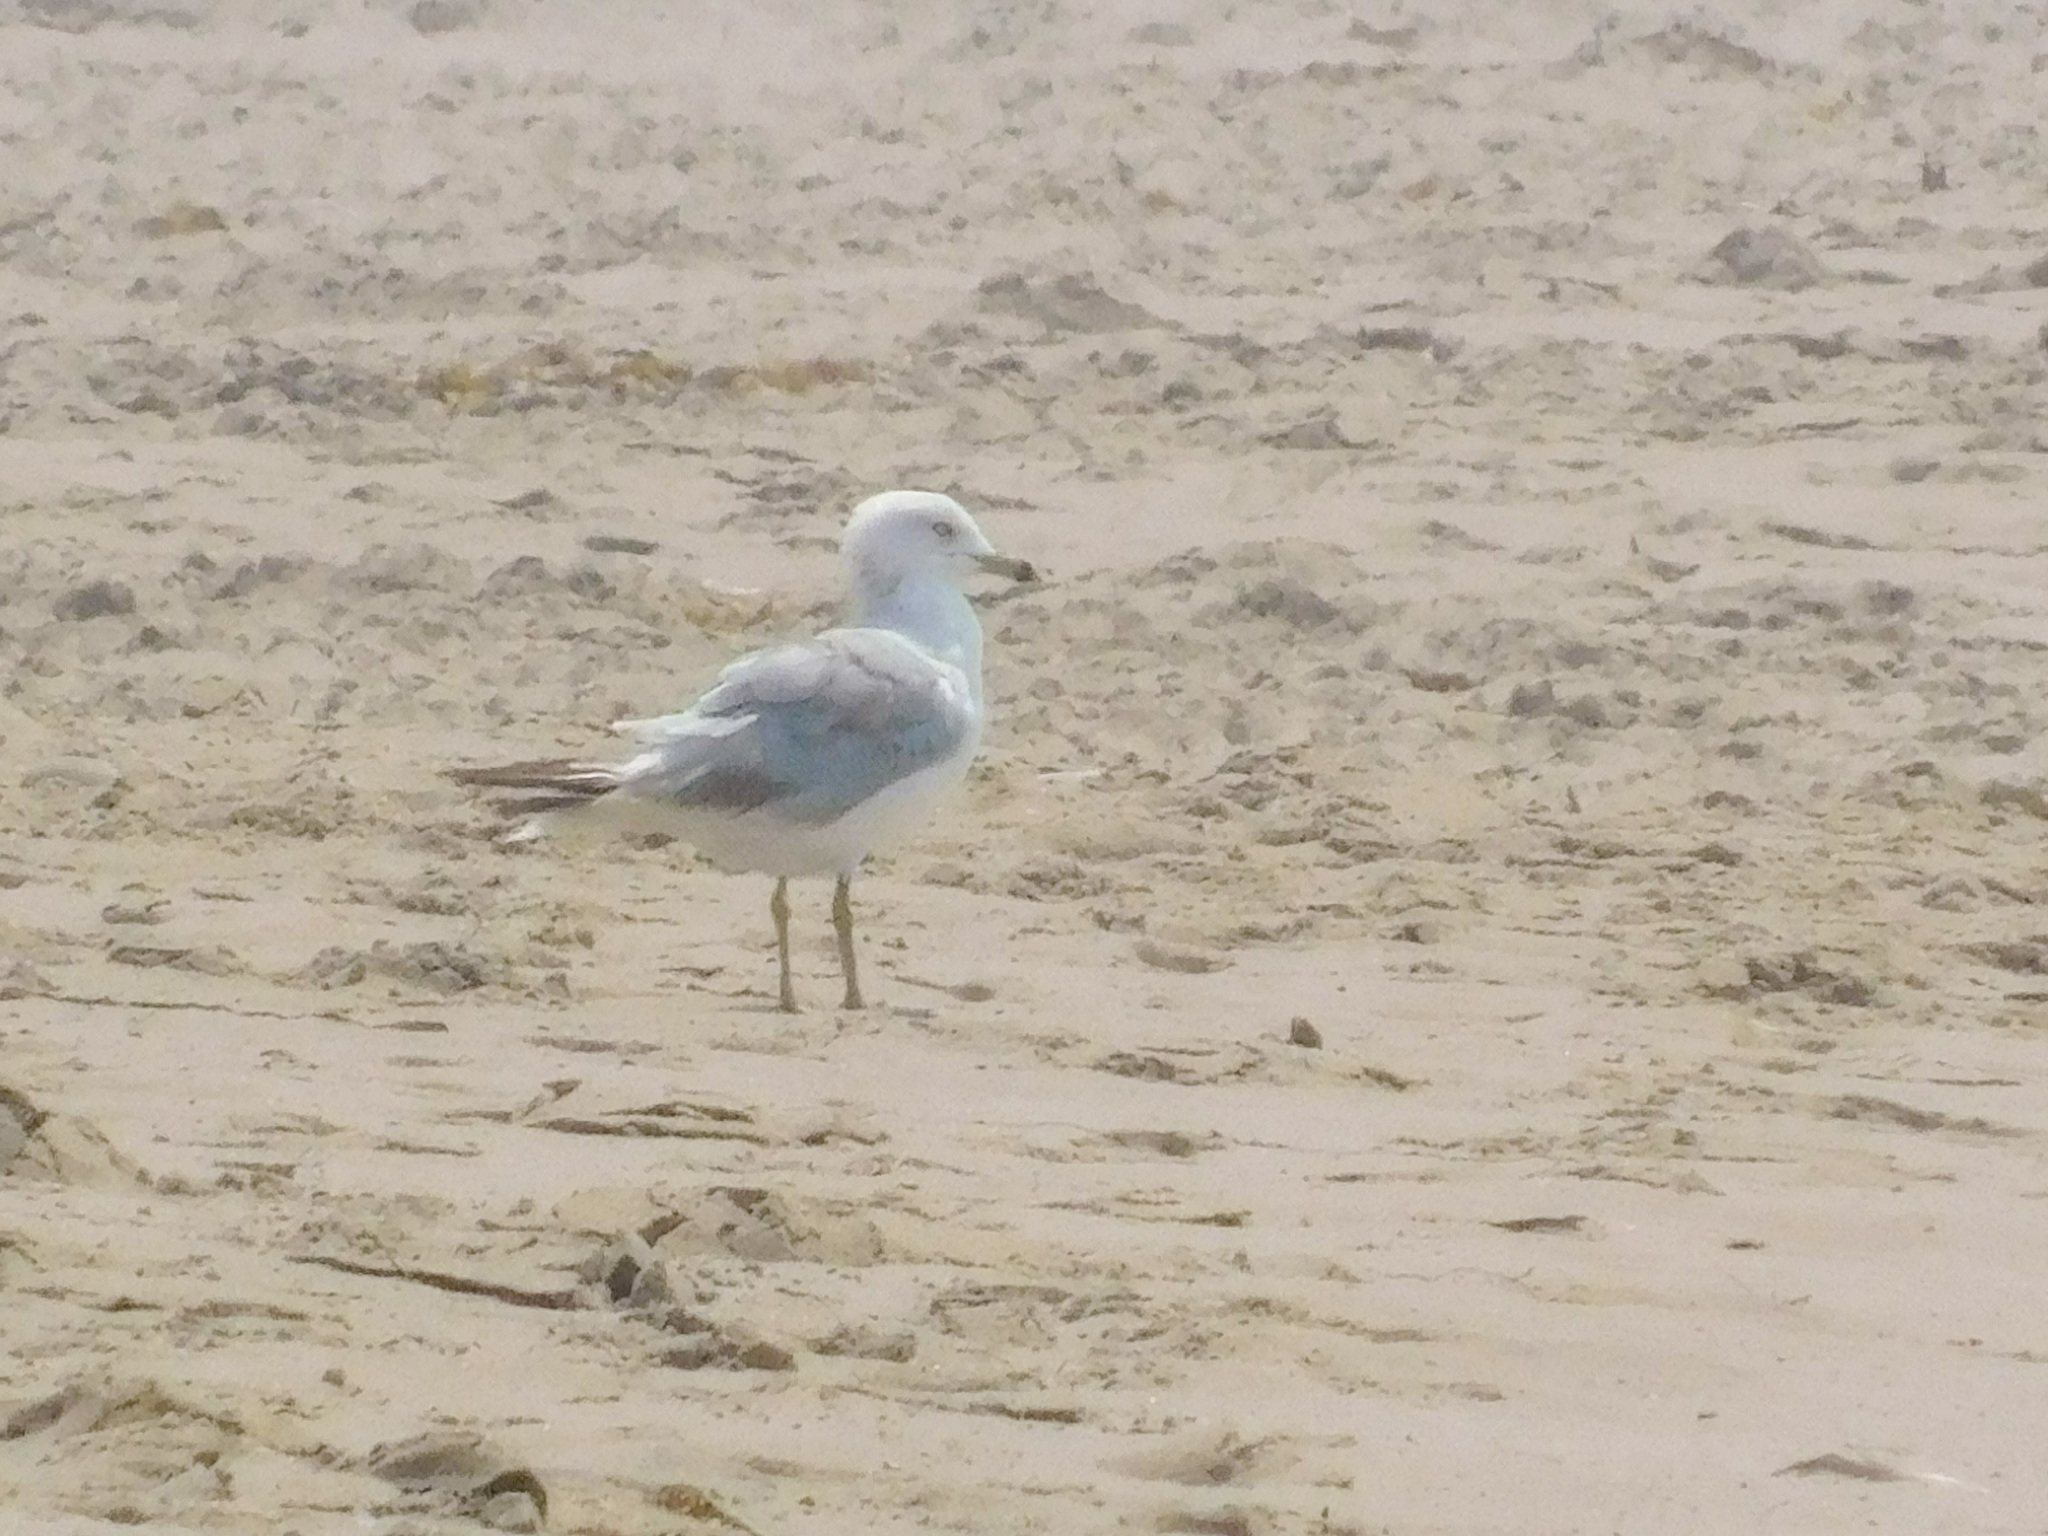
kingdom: Animalia
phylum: Chordata
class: Aves
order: Charadriiformes
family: Laridae
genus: Larus
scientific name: Larus delawarensis
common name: Ring-billed gull
